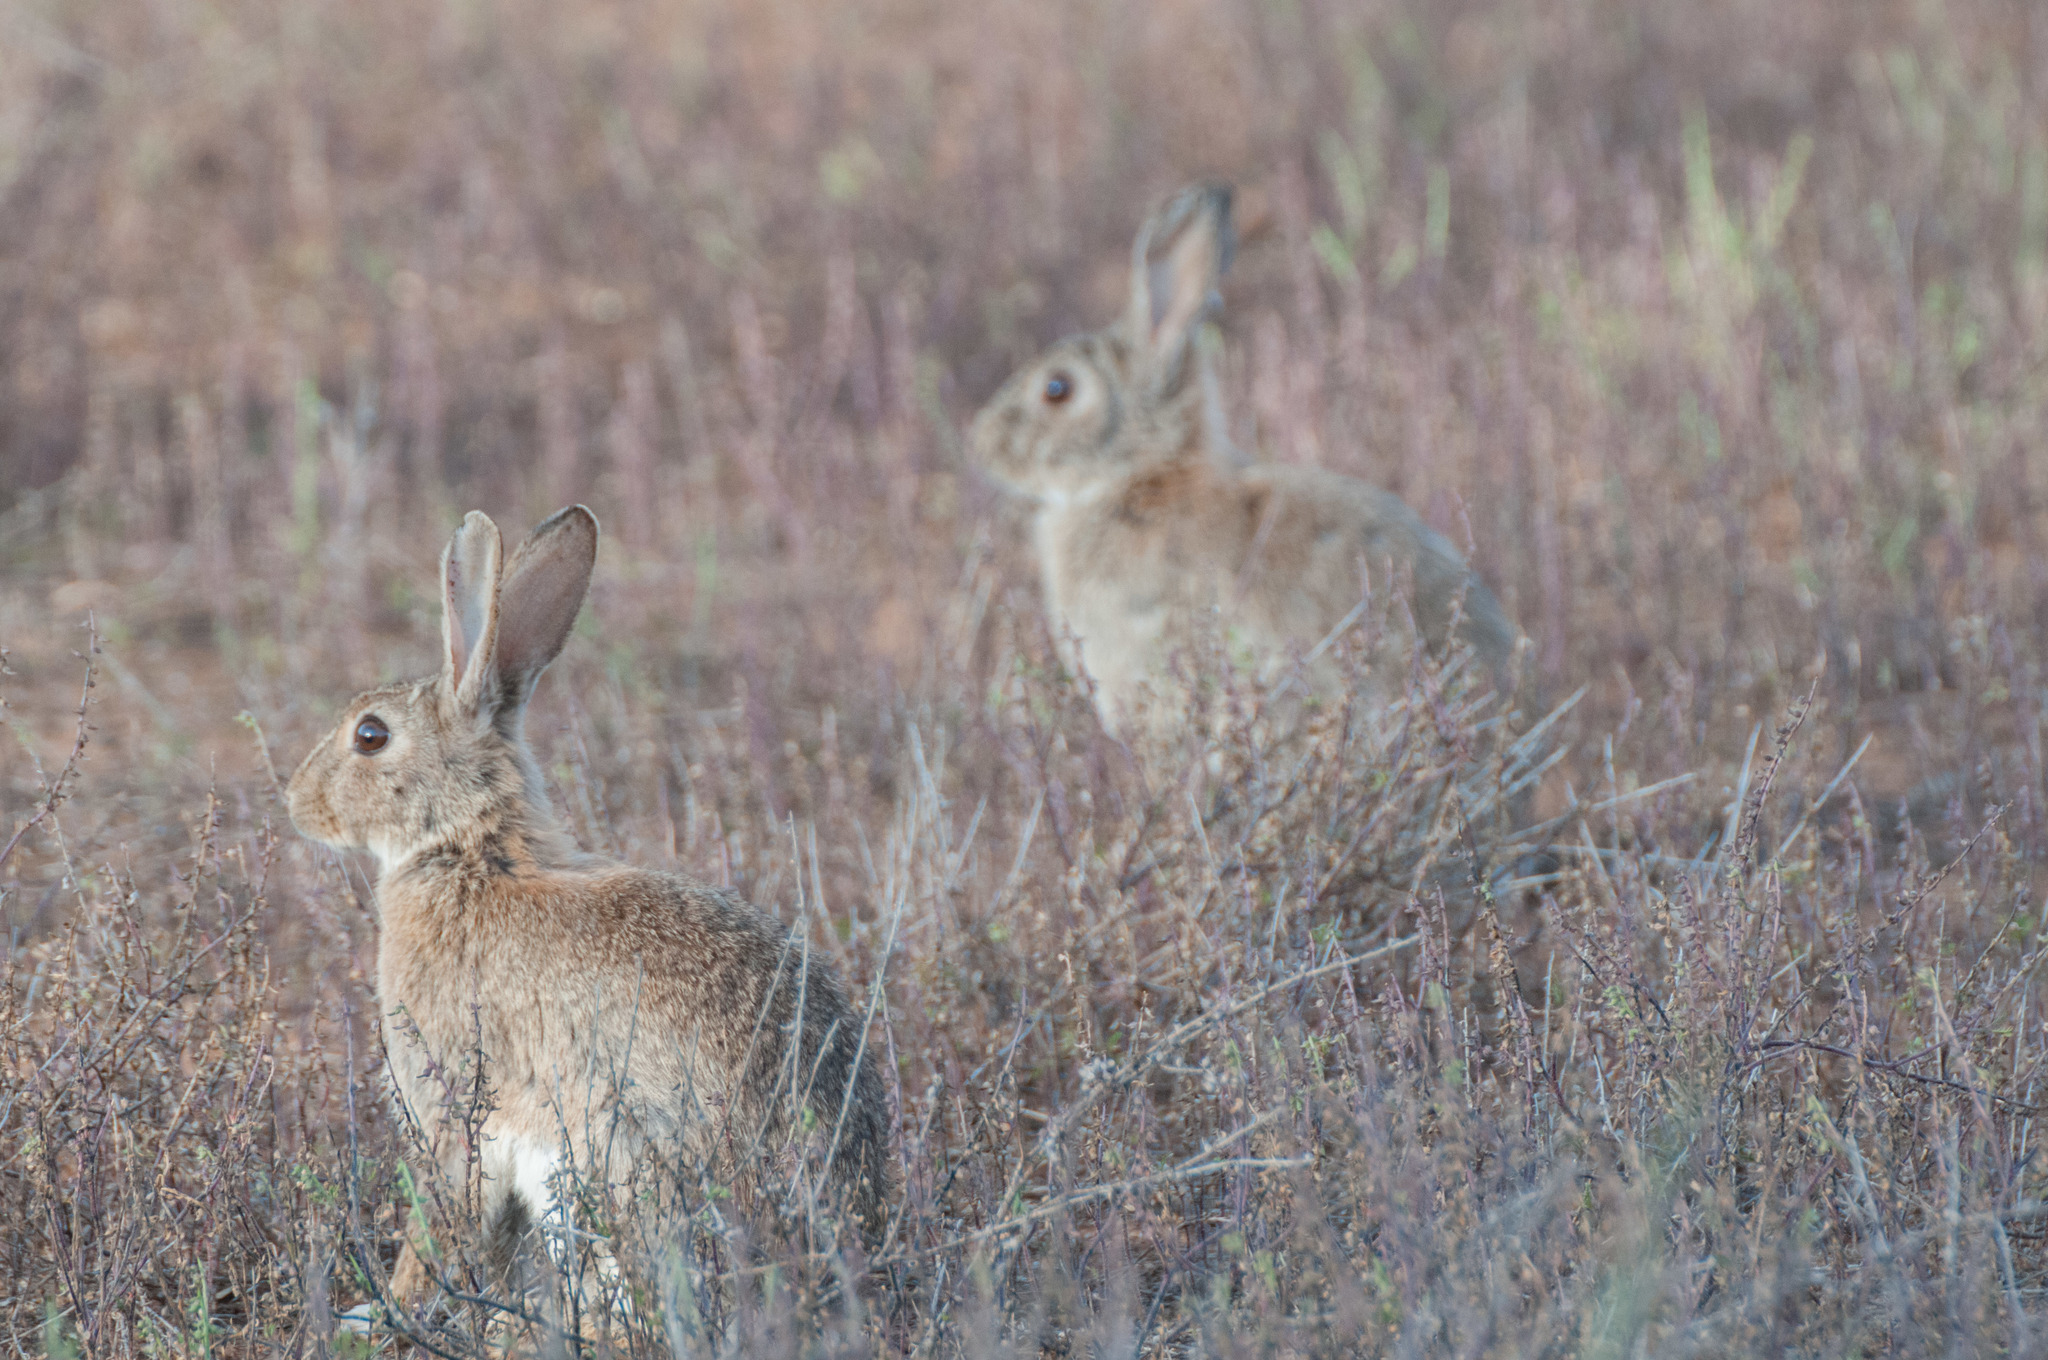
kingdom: Animalia
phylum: Chordata
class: Mammalia
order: Lagomorpha
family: Leporidae
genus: Oryctolagus
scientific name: Oryctolagus cuniculus
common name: European rabbit
